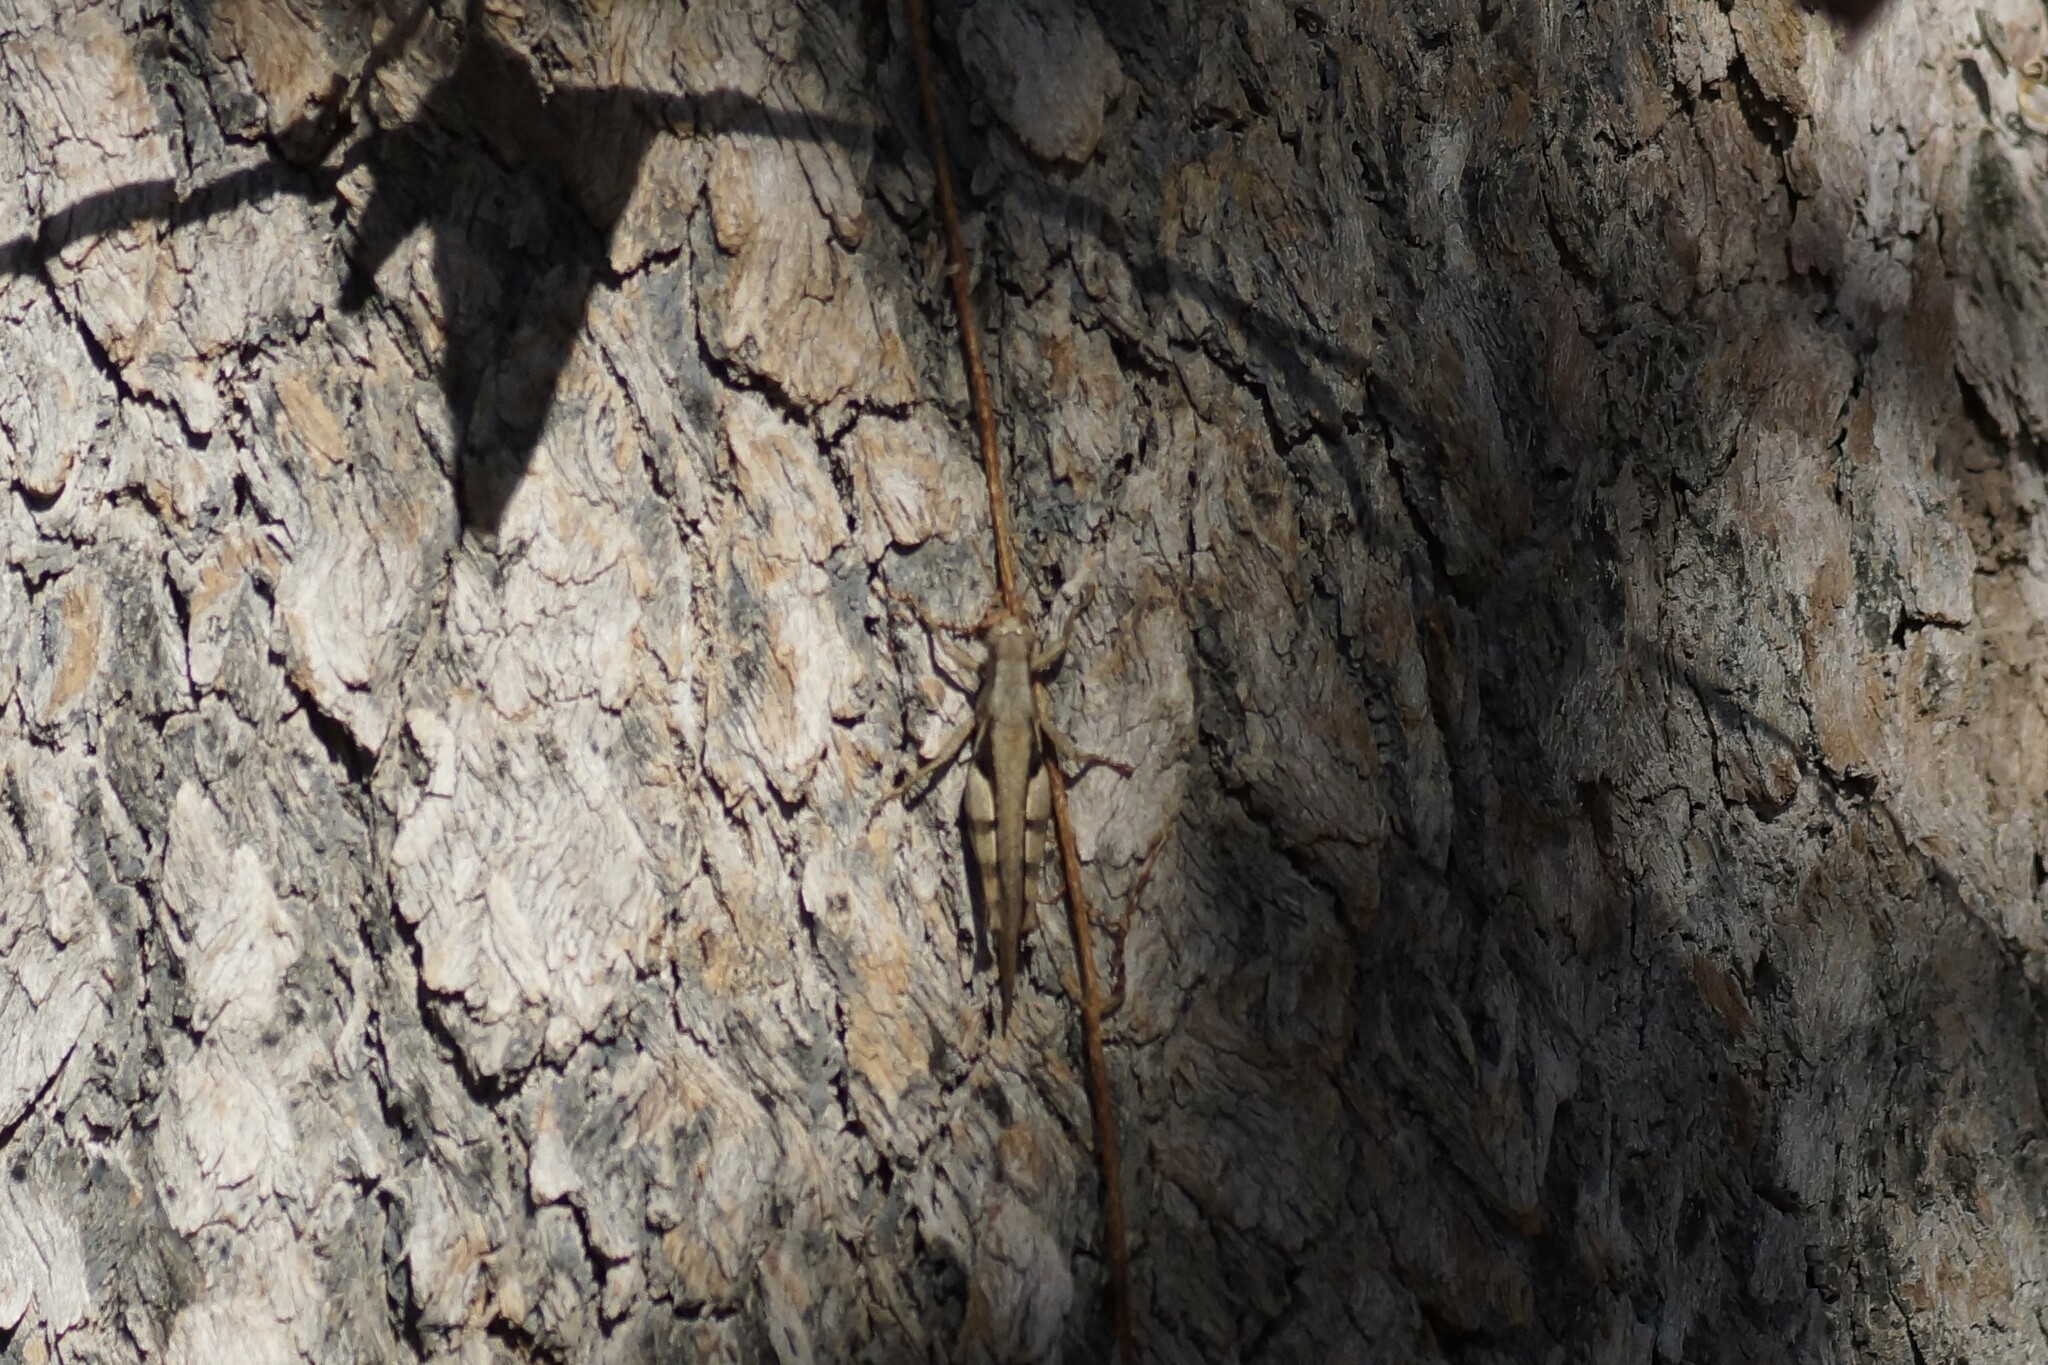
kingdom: Animalia
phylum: Arthropoda
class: Insecta
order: Orthoptera
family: Acrididae
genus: Stenocatantops
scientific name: Stenocatantops angustifrons
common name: Common tropical sharptail
